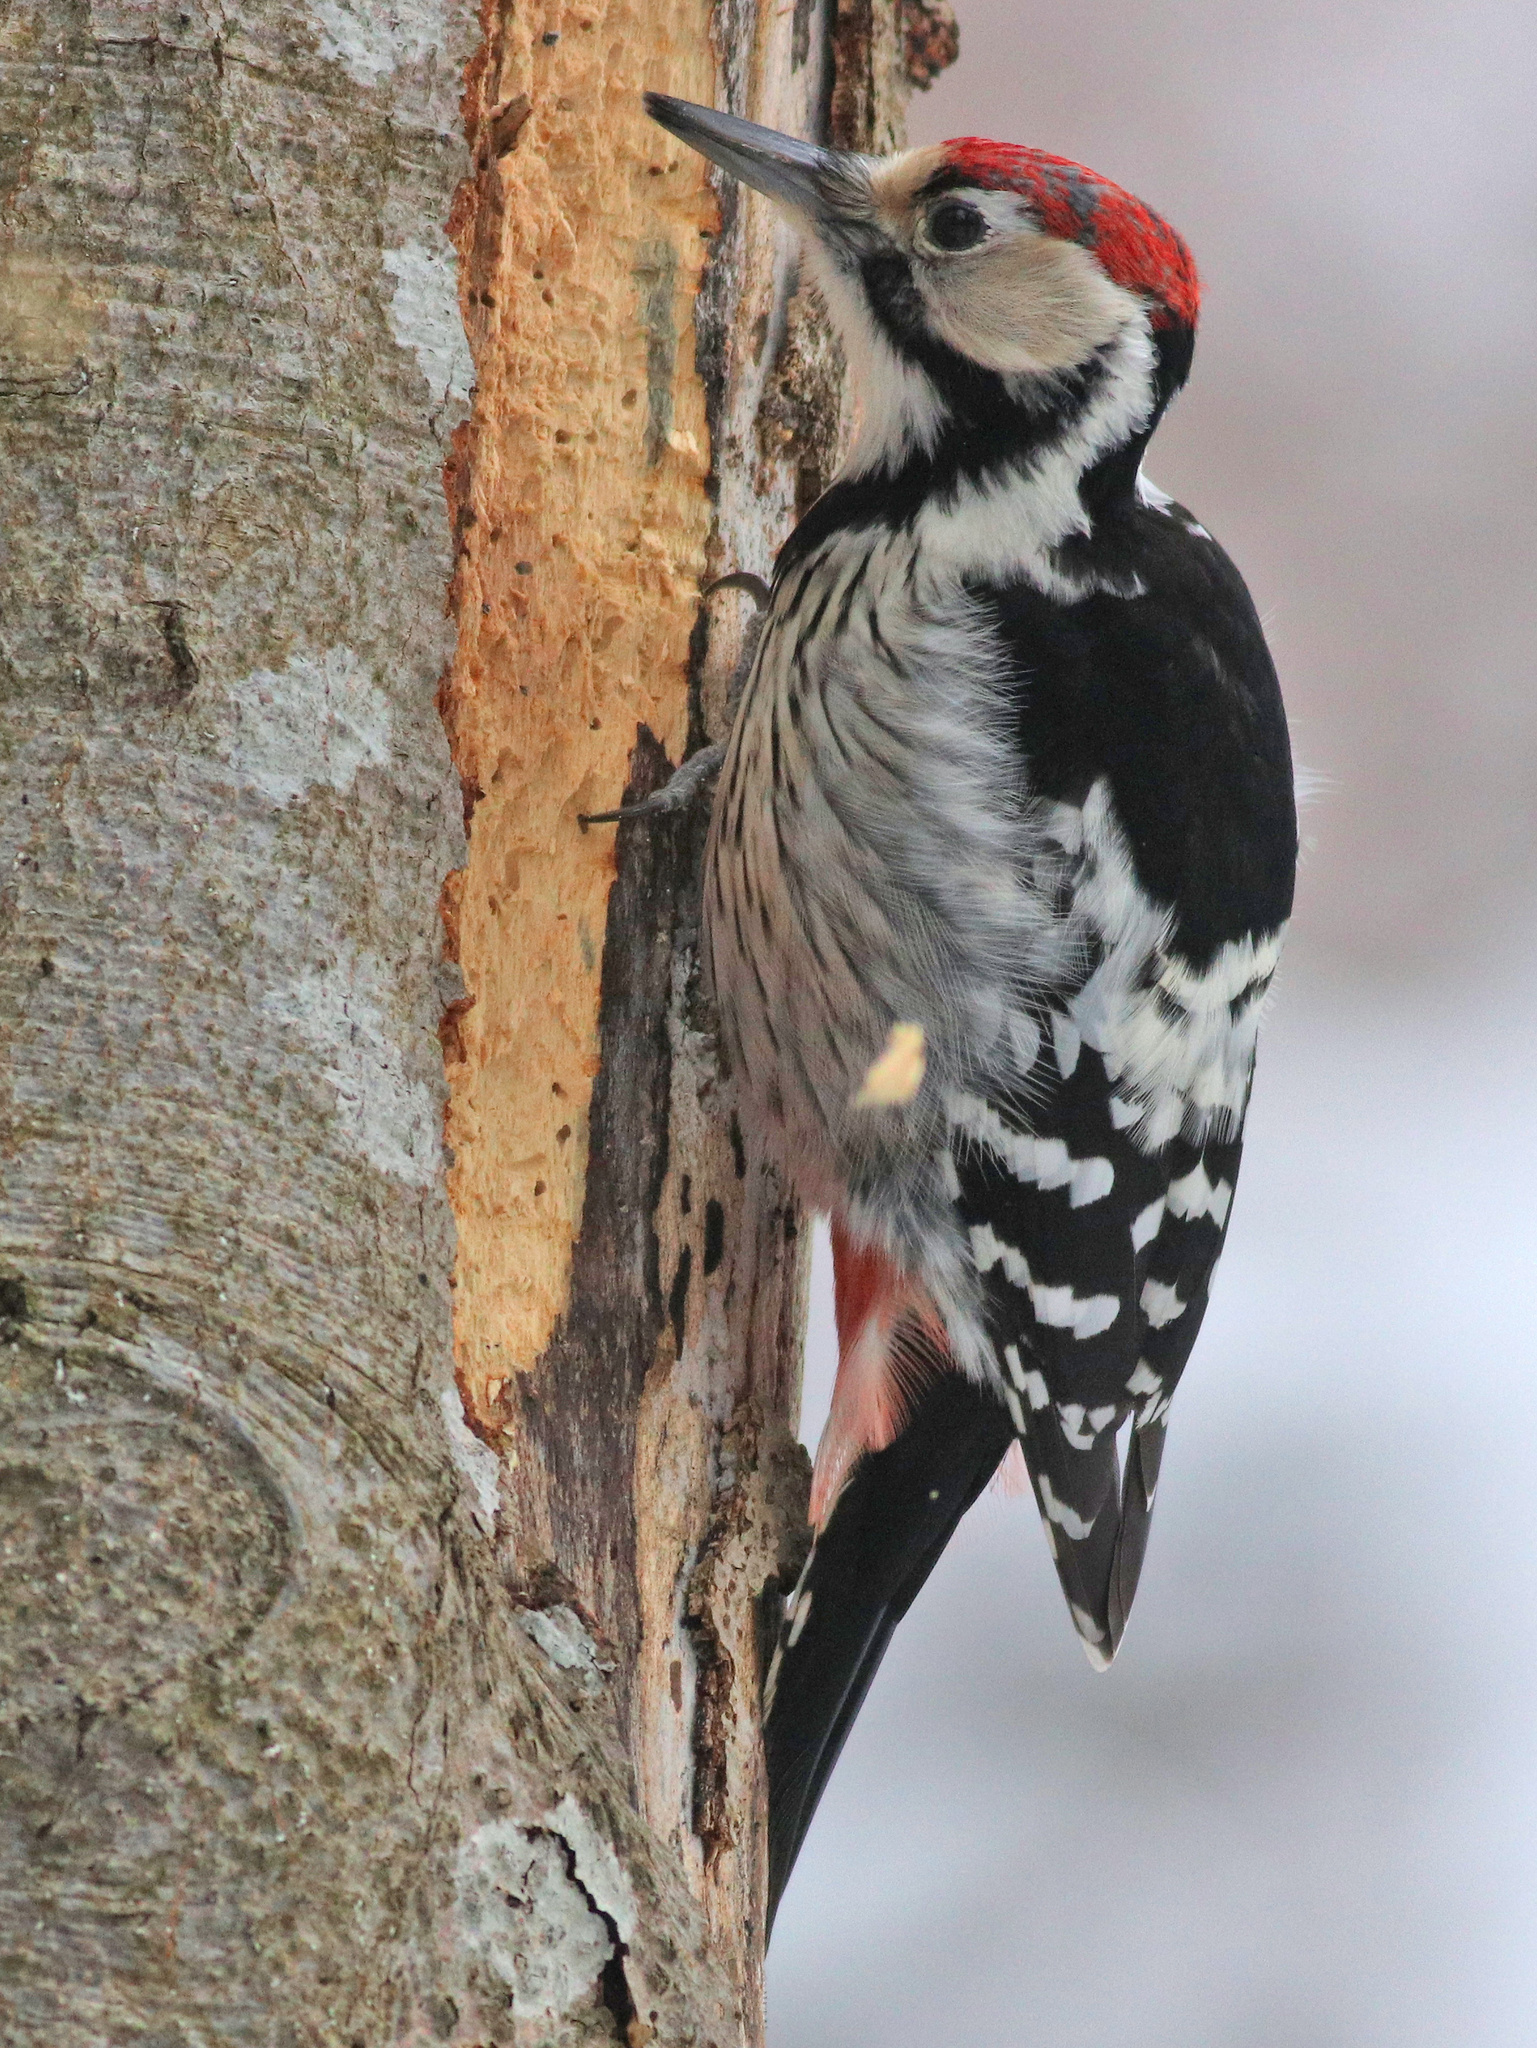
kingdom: Animalia
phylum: Chordata
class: Aves
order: Piciformes
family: Picidae
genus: Dendrocopos
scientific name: Dendrocopos leucotos
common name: White-backed woodpecker
